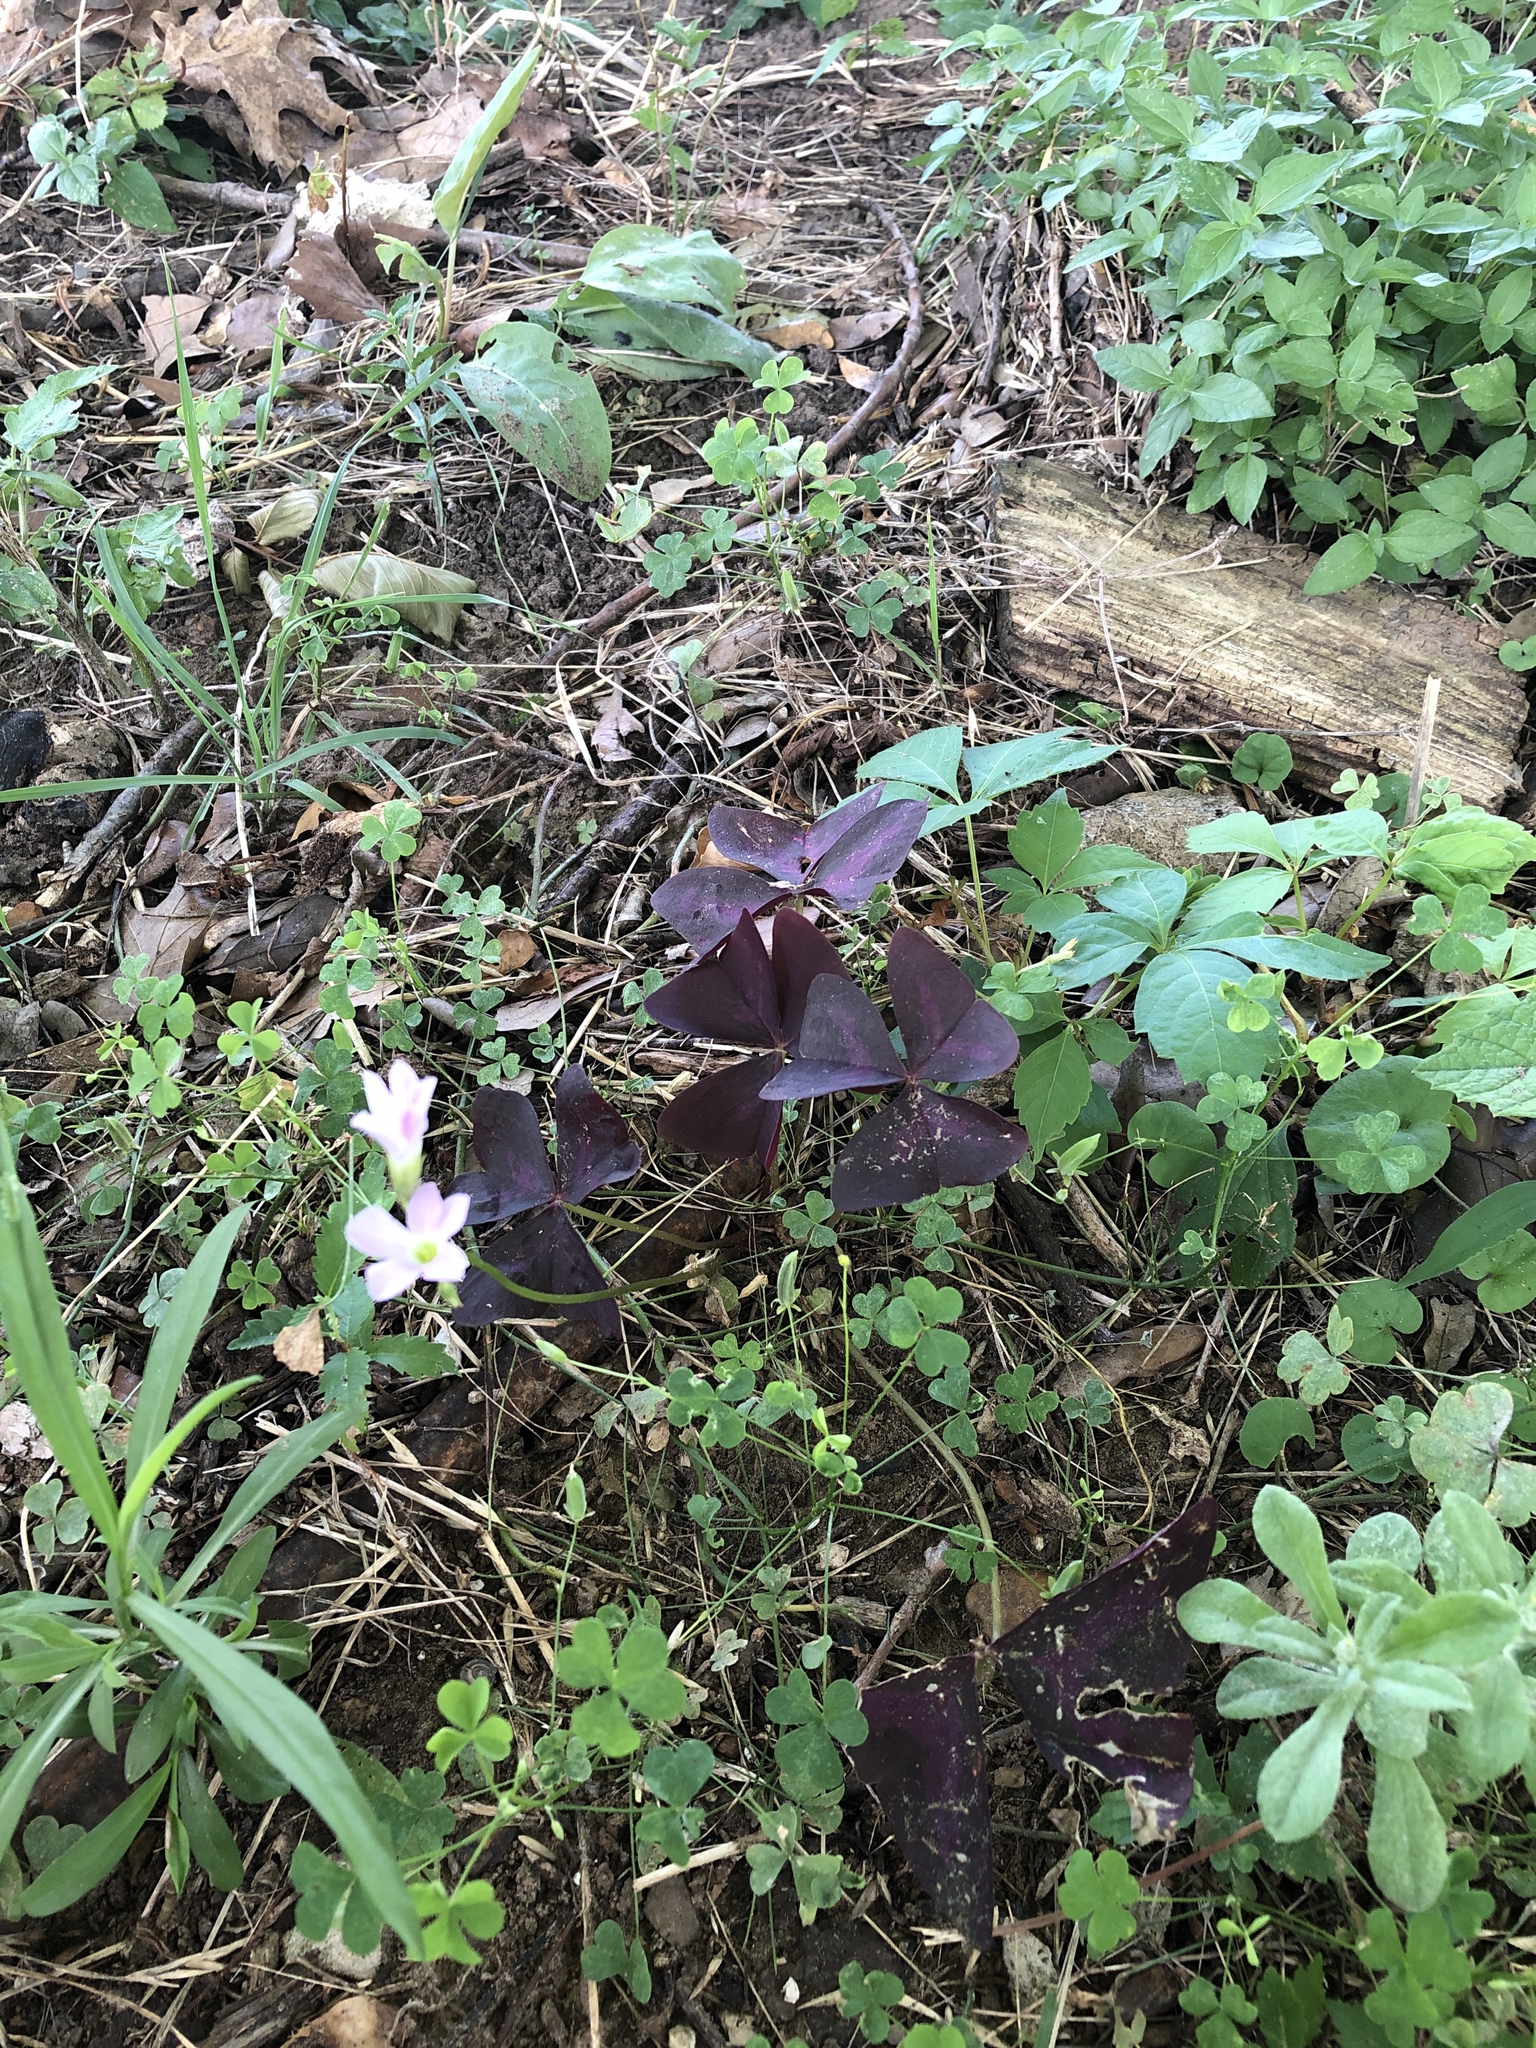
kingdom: Plantae
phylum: Tracheophyta
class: Magnoliopsida
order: Oxalidales
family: Oxalidaceae
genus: Oxalis
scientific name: Oxalis triangularis
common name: Wood sorrel
